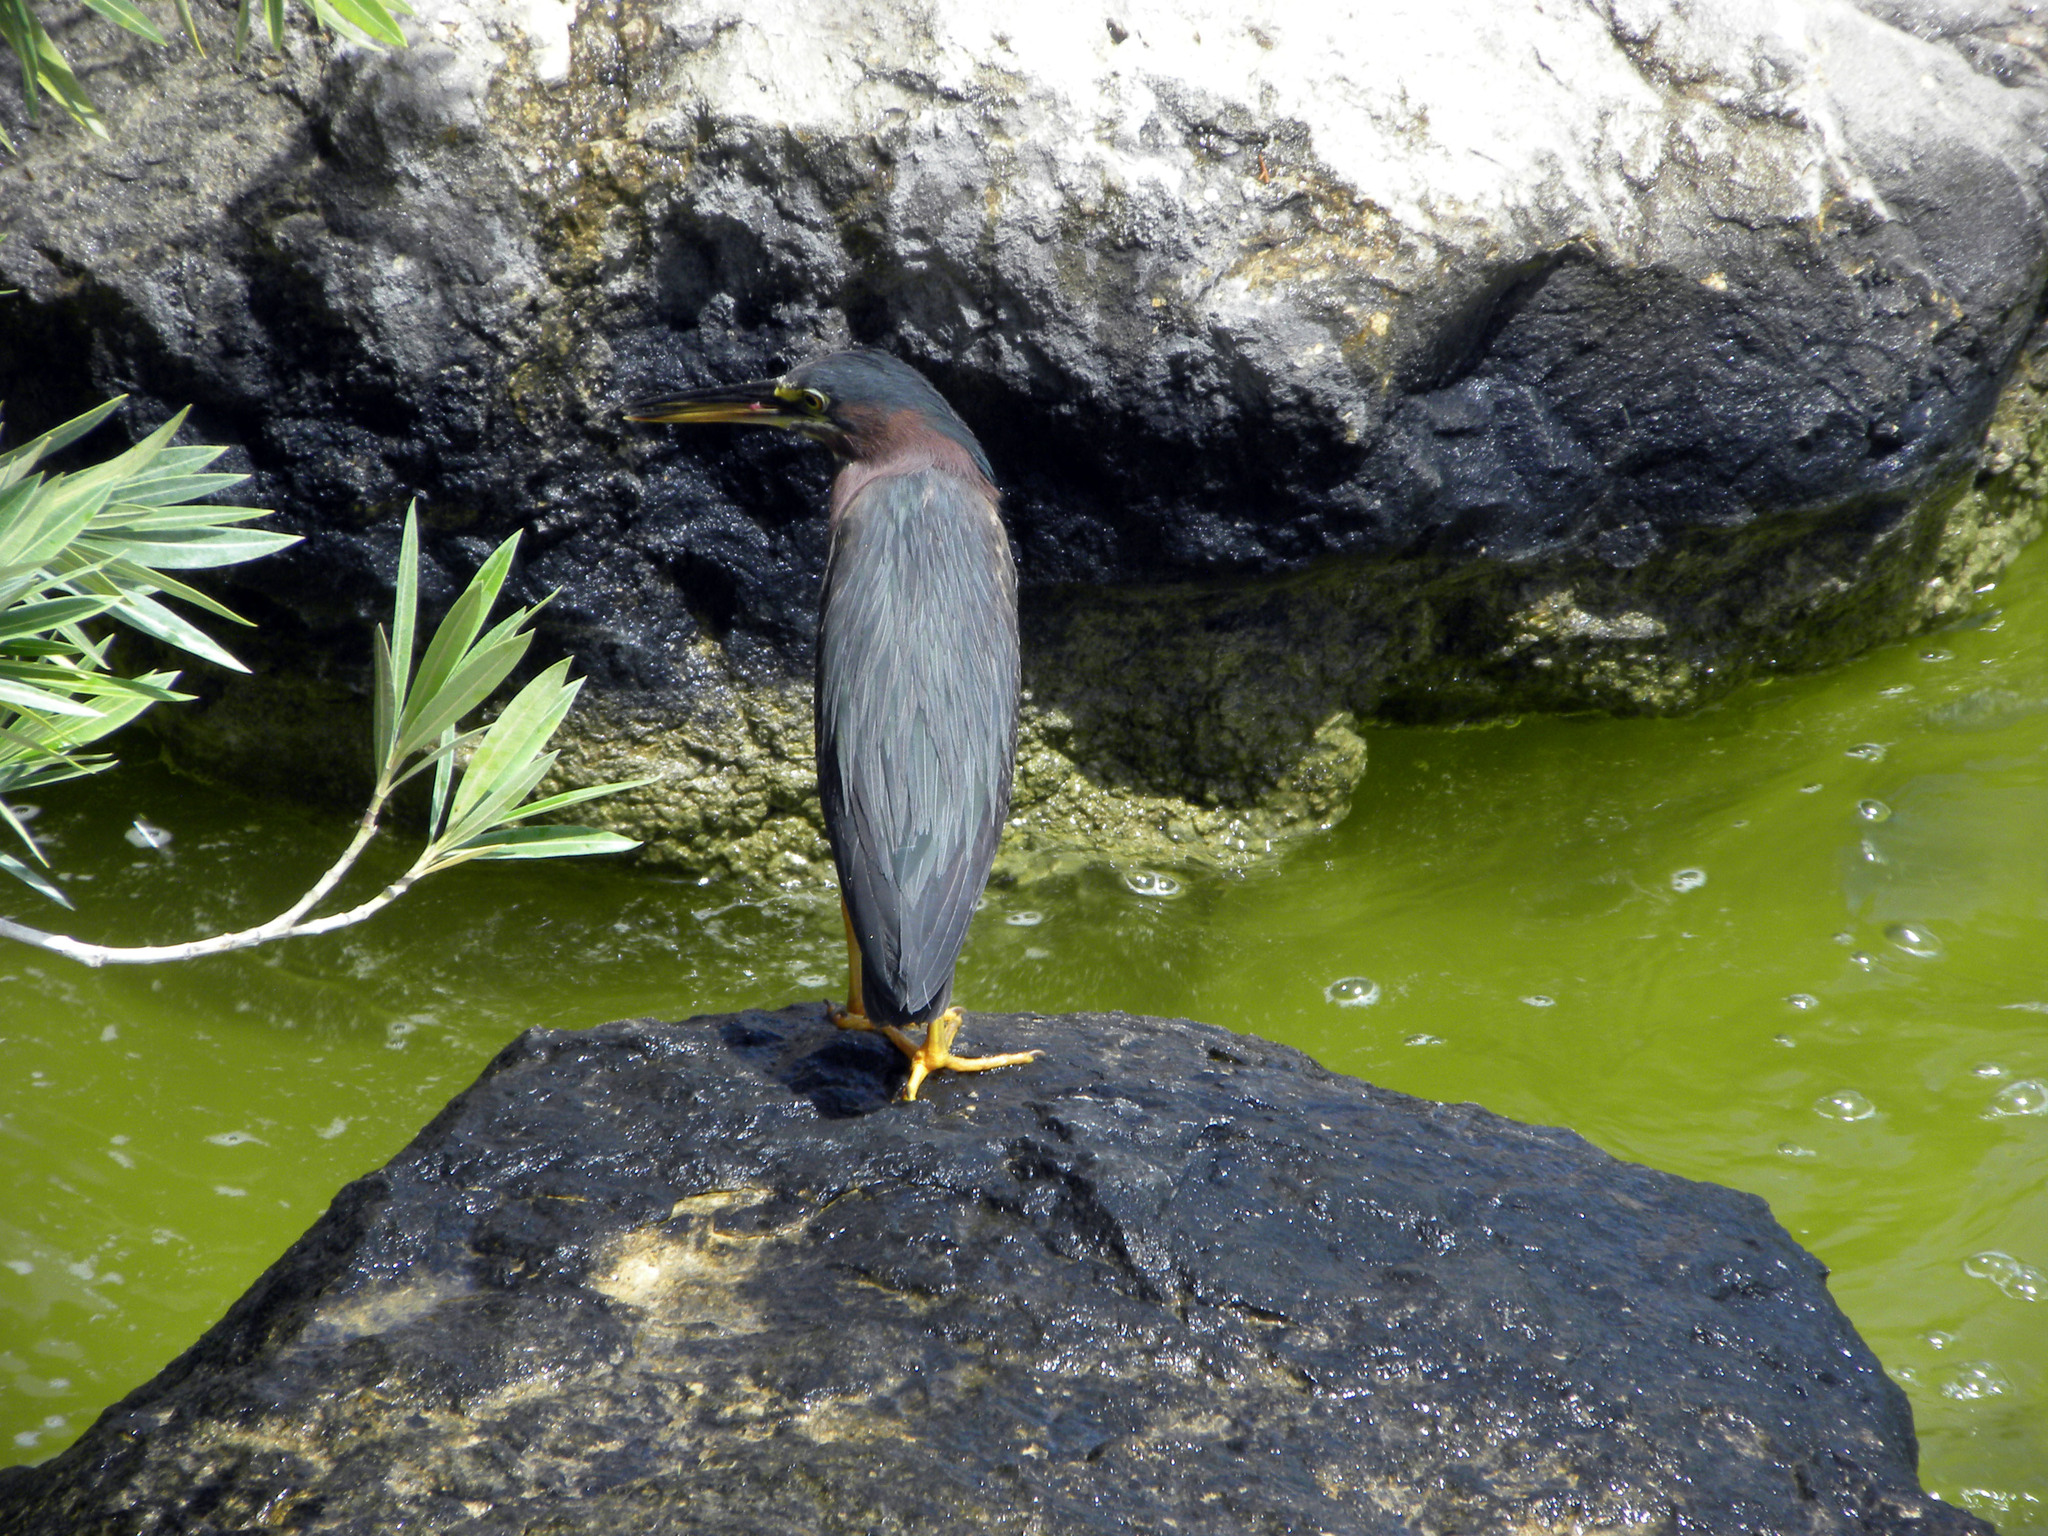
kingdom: Animalia
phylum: Chordata
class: Aves
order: Pelecaniformes
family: Ardeidae
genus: Butorides
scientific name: Butorides virescens
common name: Green heron
